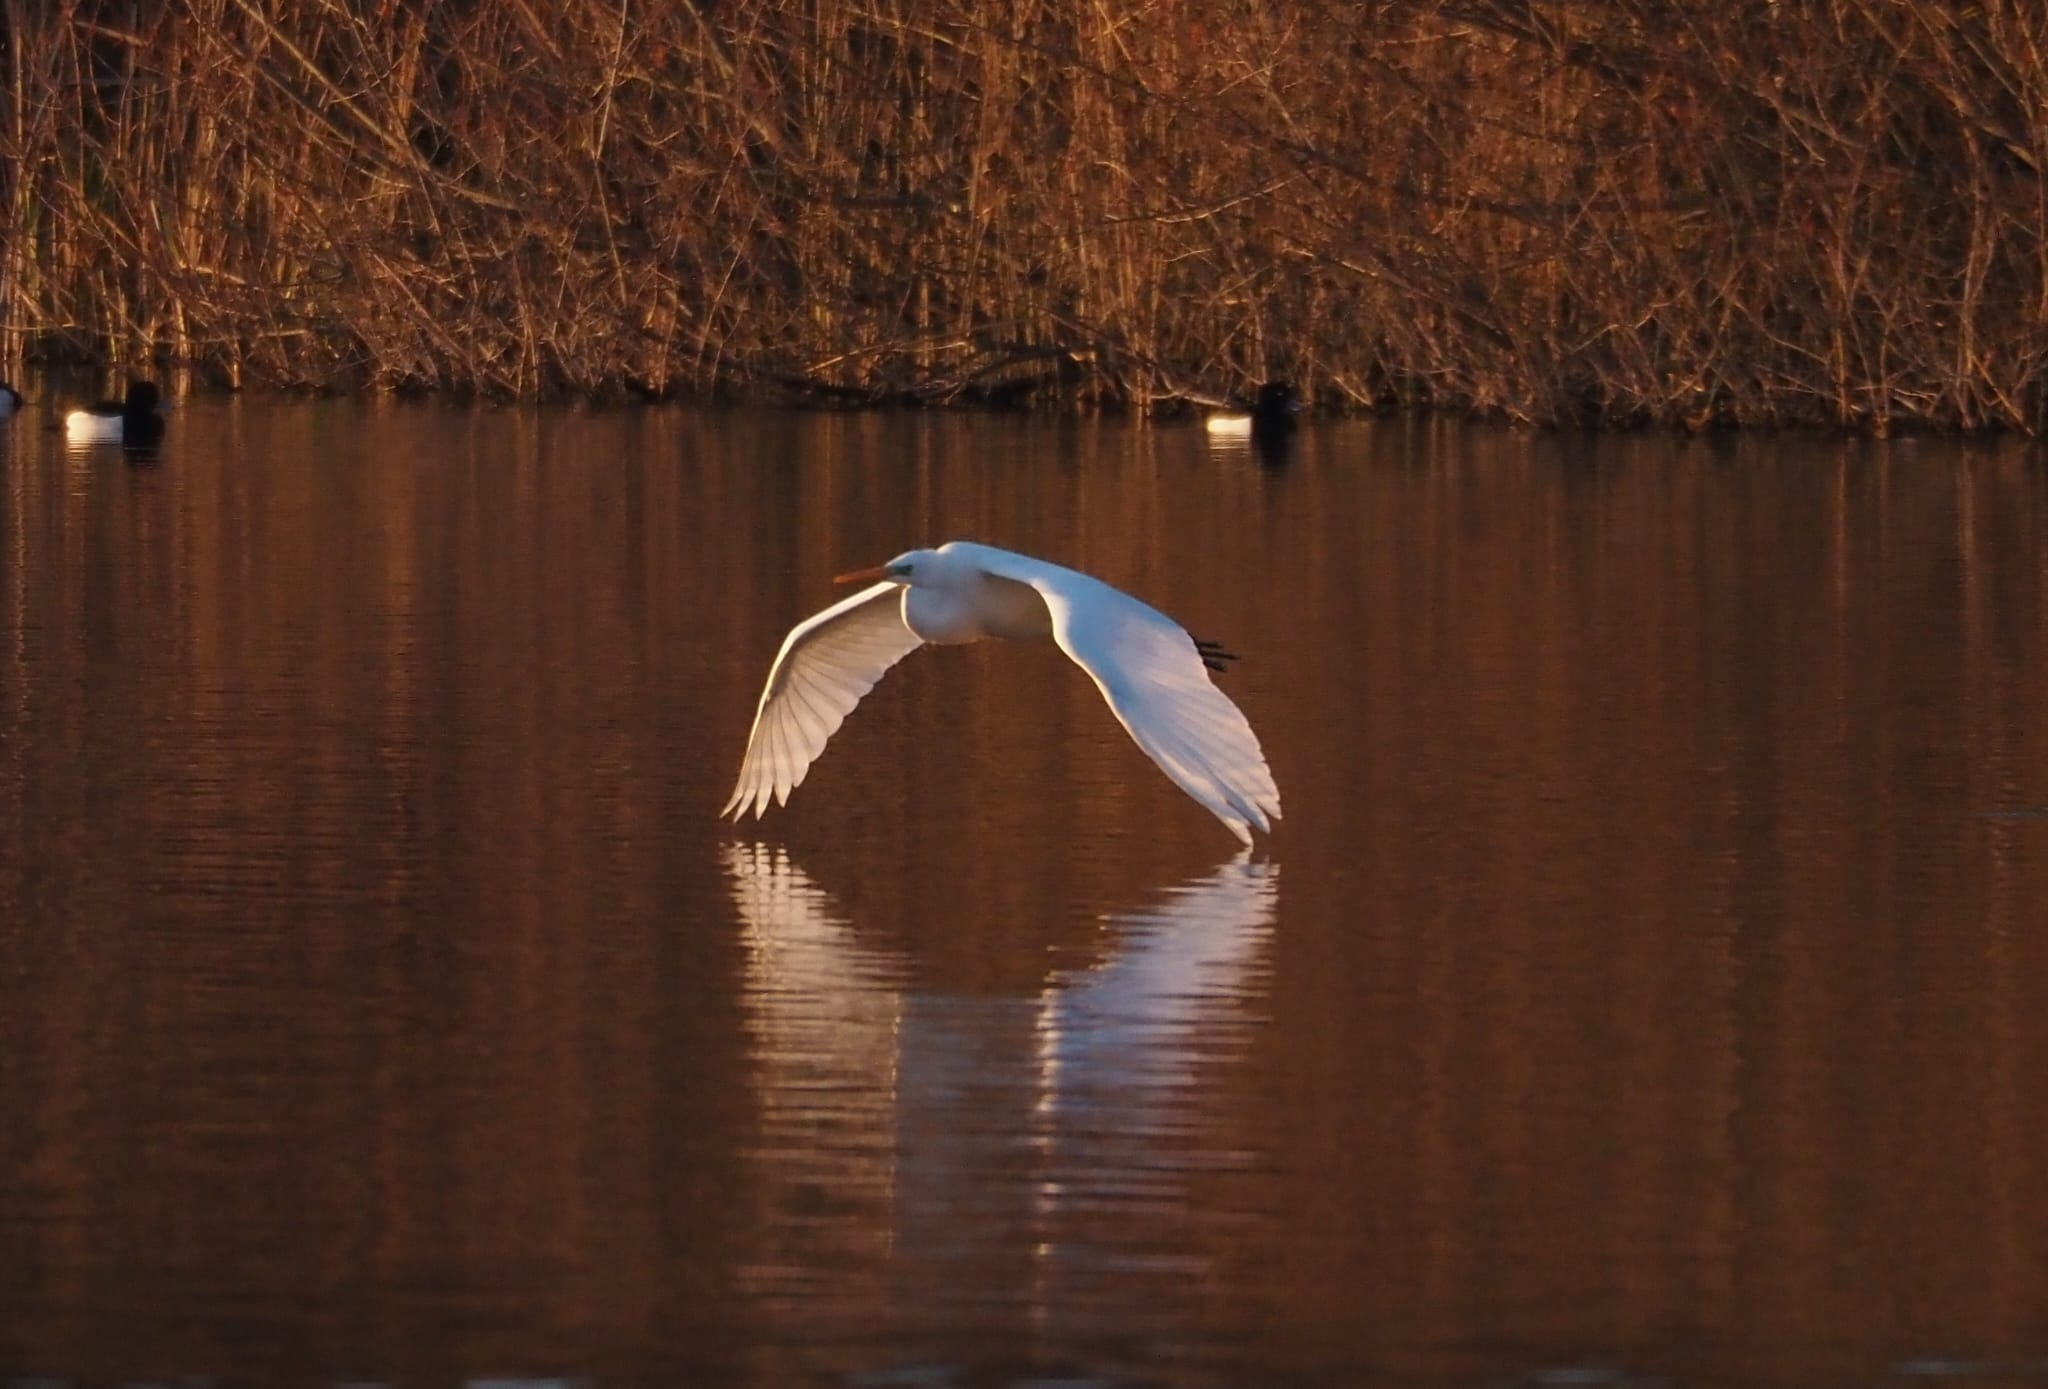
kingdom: Animalia
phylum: Chordata
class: Aves
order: Pelecaniformes
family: Ardeidae
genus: Ardea
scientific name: Ardea alba
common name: Great egret
